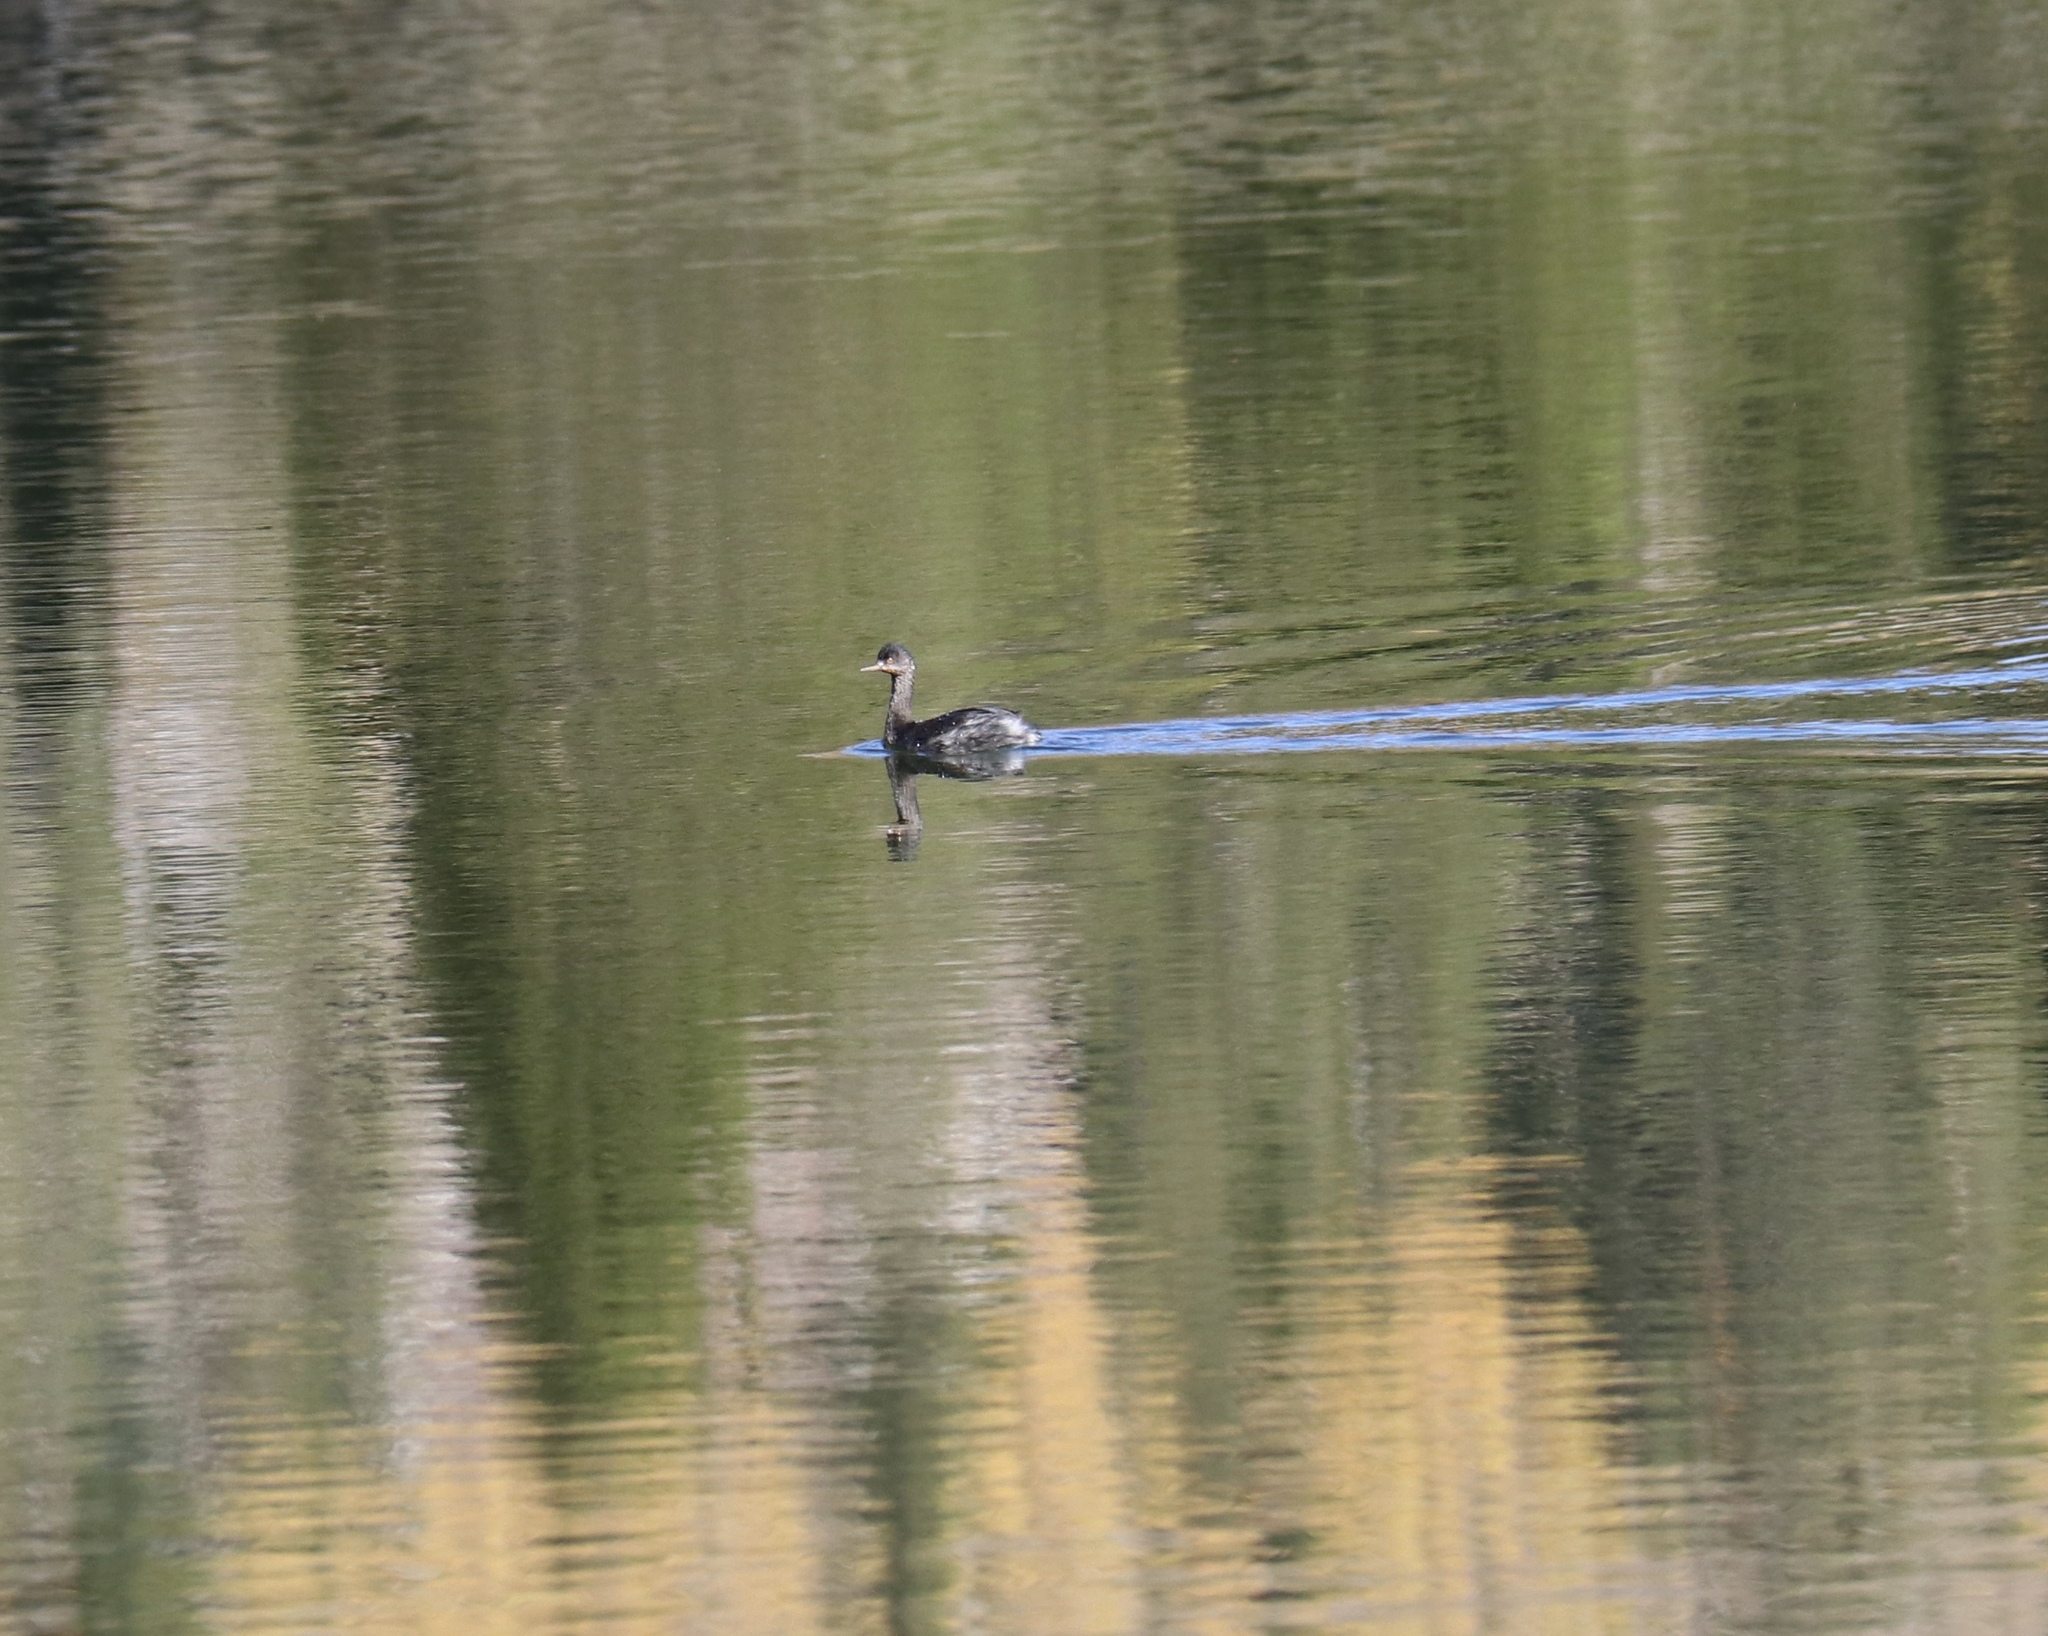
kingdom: Animalia
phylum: Chordata
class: Aves
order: Podicipediformes
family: Podicipedidae
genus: Podiceps
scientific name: Podiceps nigricollis
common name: Black-necked grebe
